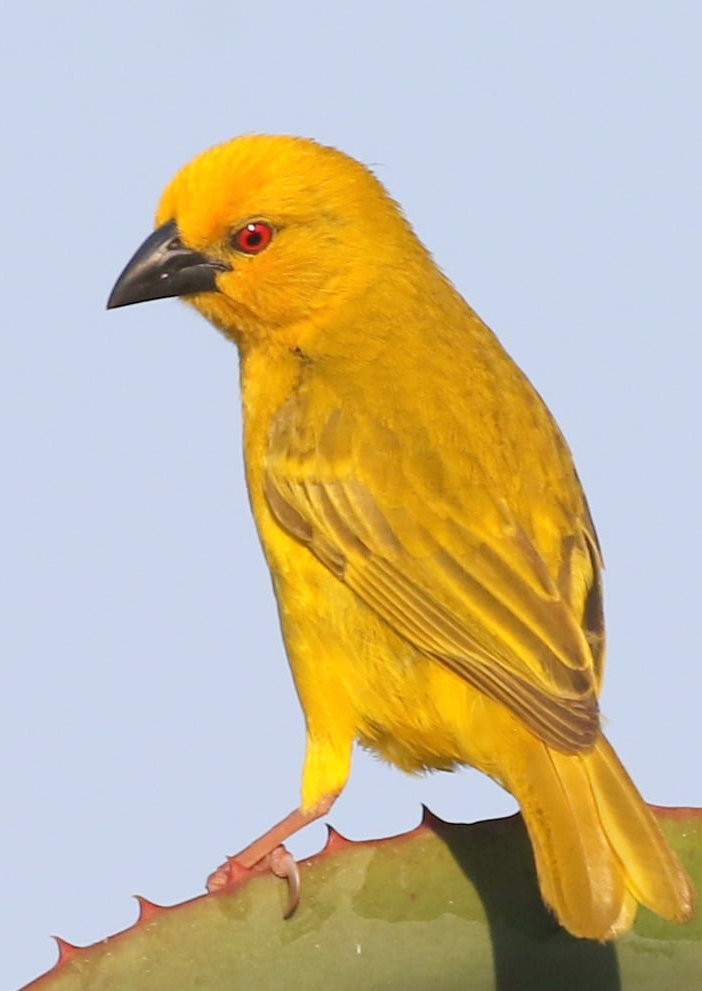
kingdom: Animalia
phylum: Chordata
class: Aves
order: Passeriformes
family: Ploceidae
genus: Ploceus
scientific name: Ploceus subaureus
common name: Yellow weaver
